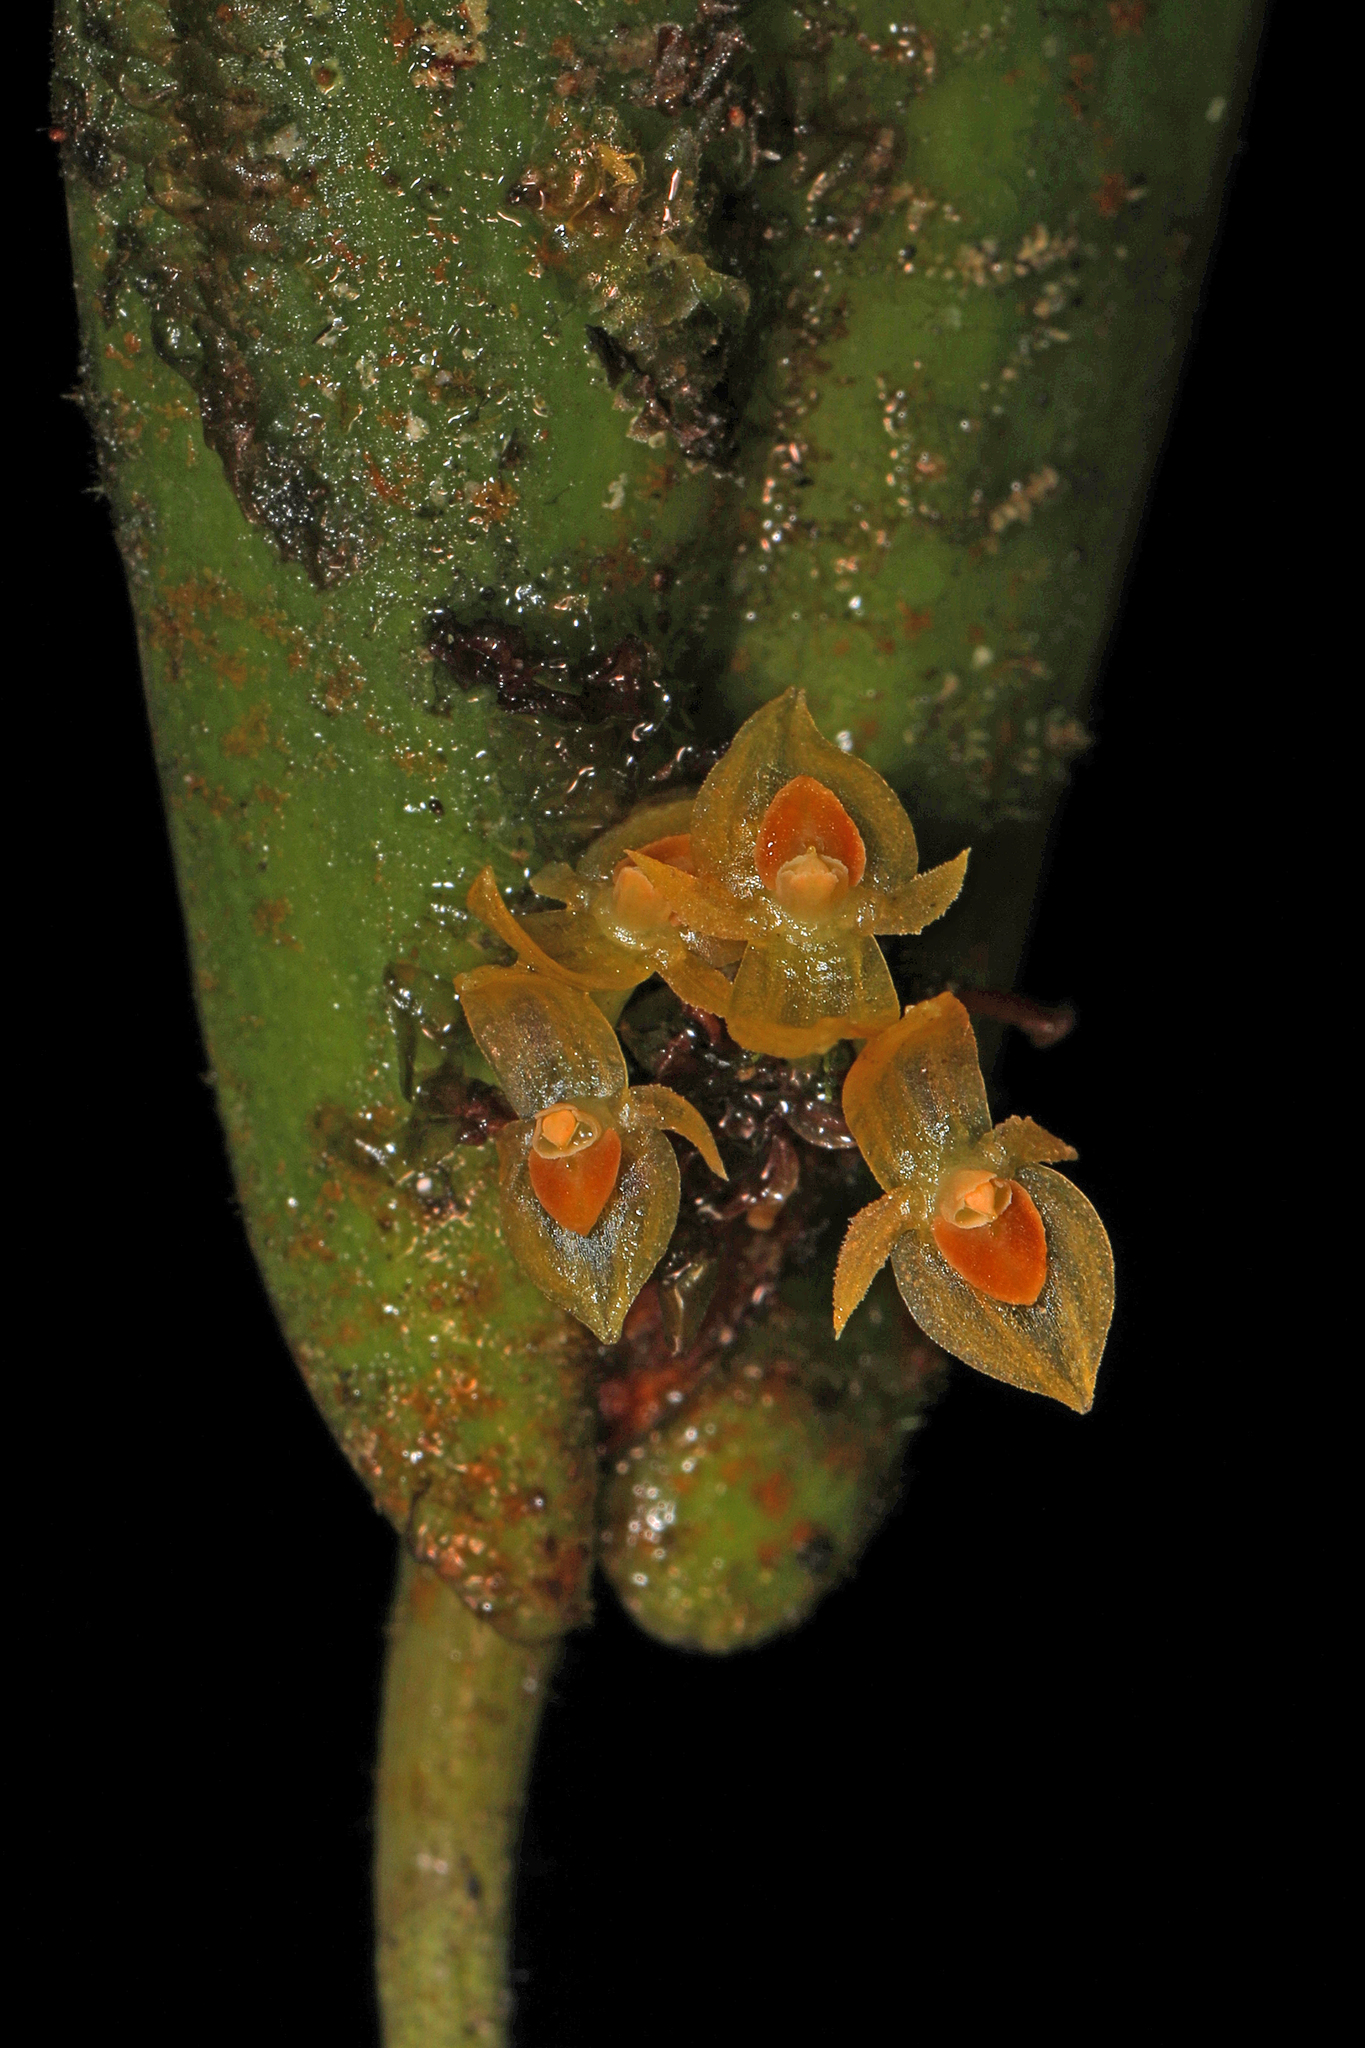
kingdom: Plantae
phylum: Tracheophyta
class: Liliopsida
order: Asparagales
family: Orchidaceae
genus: Pleurothallis
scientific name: Pleurothallis dibolia
